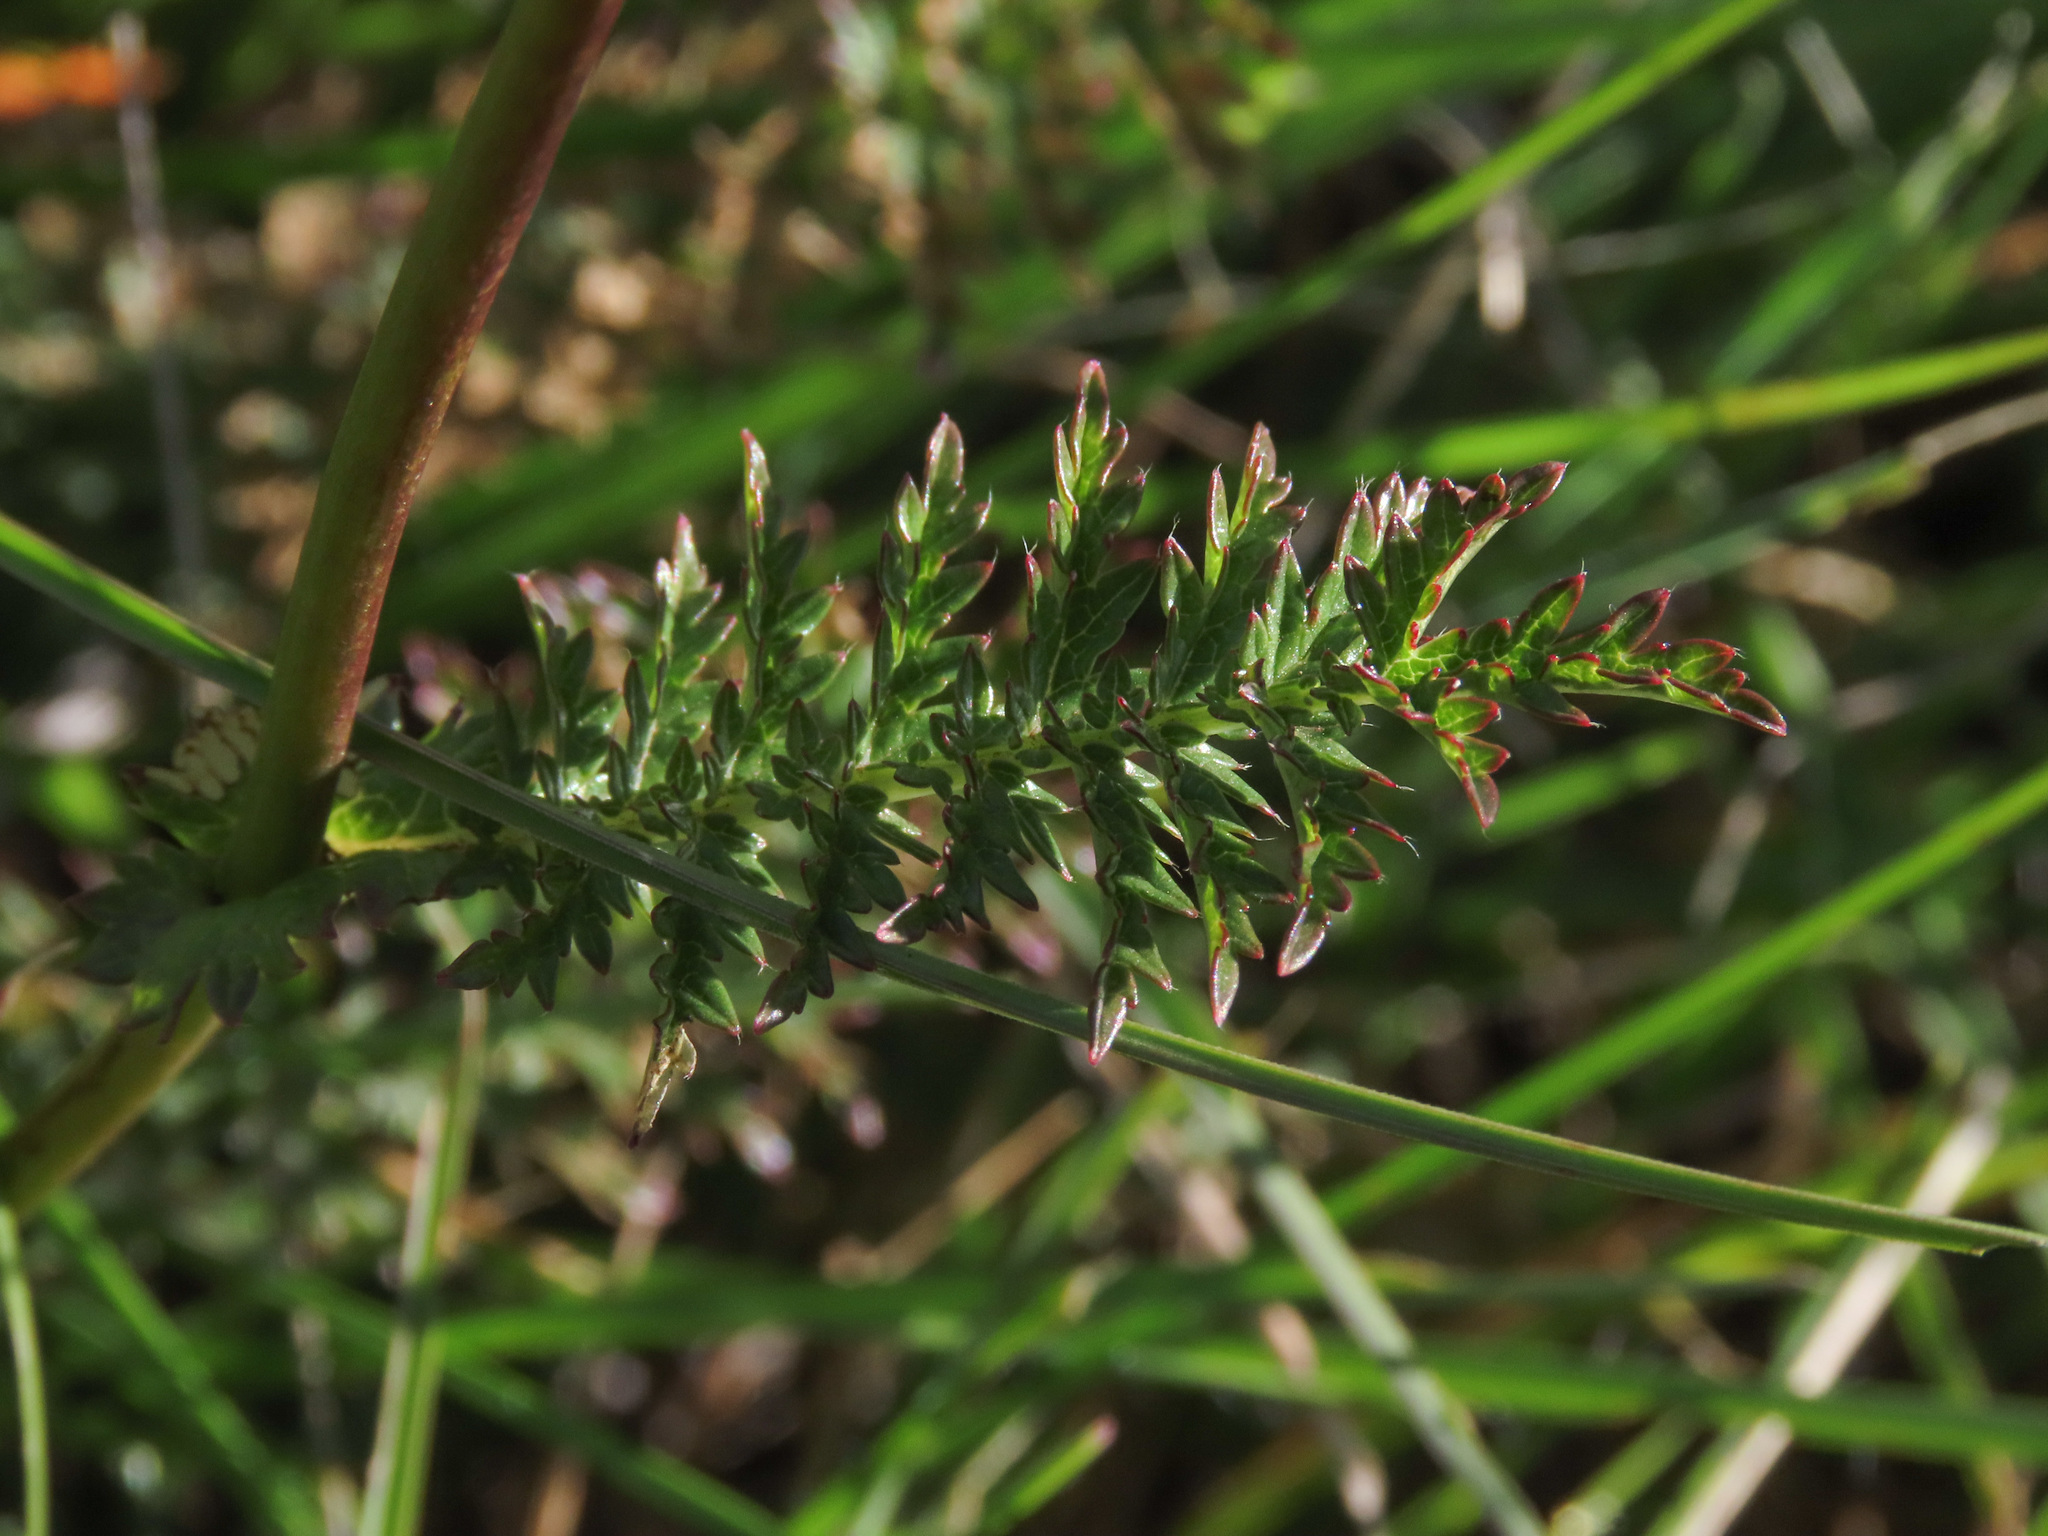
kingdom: Plantae
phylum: Tracheophyta
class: Magnoliopsida
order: Rosales
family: Rosaceae
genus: Filipendula
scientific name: Filipendula vulgaris
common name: Dropwort
